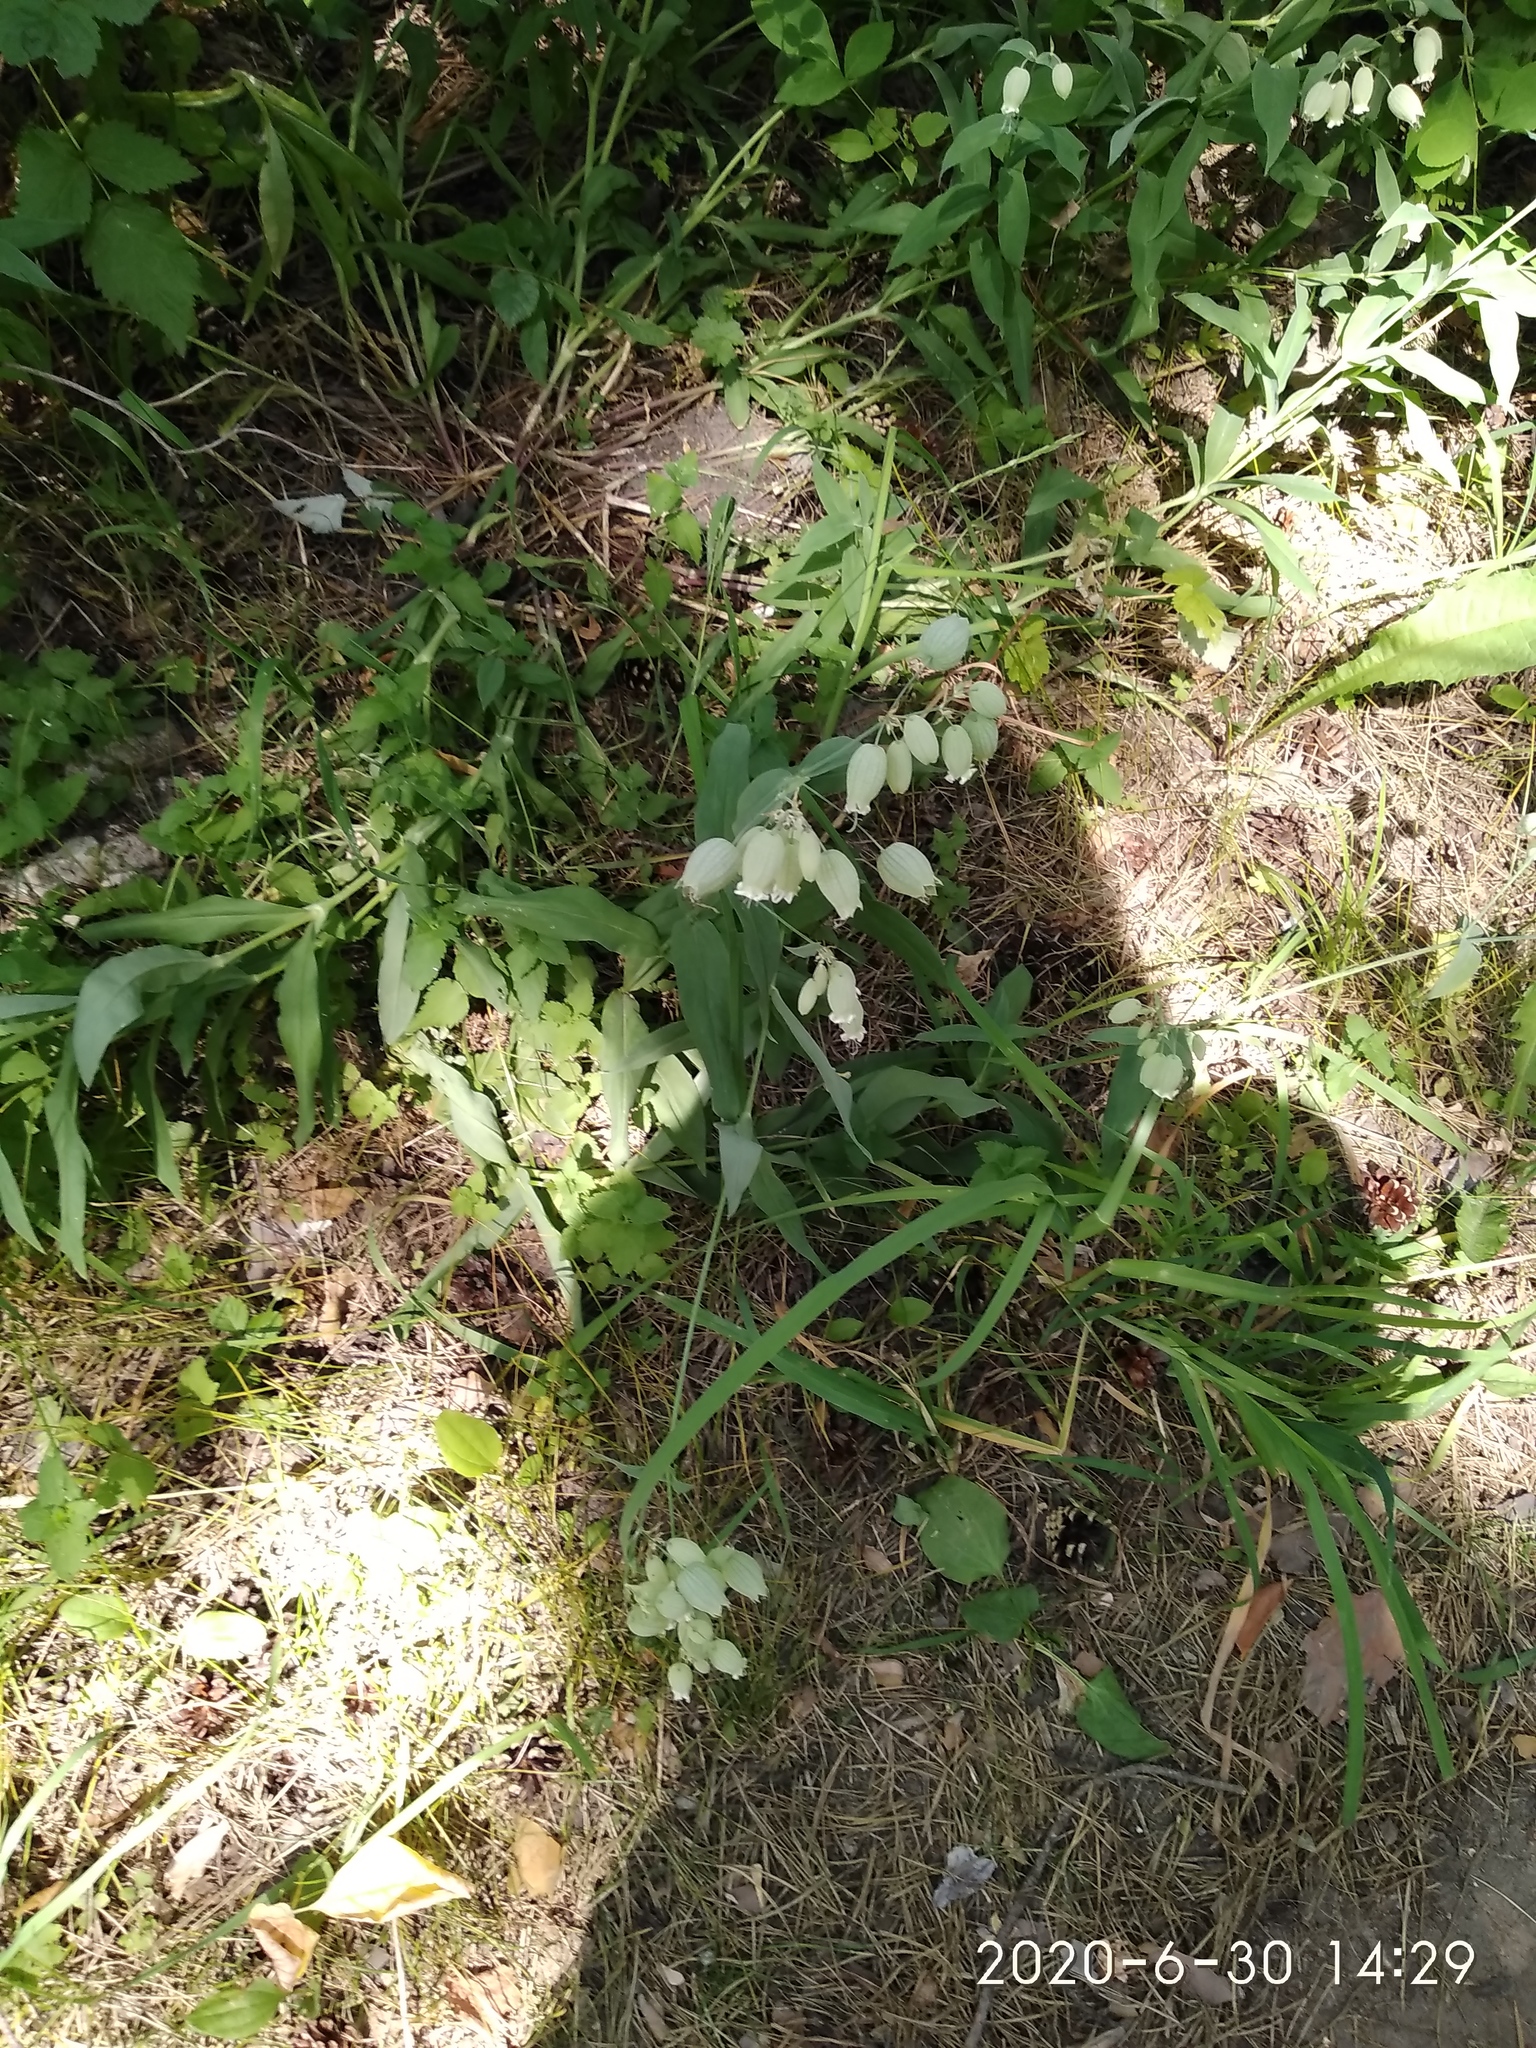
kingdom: Plantae
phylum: Tracheophyta
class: Magnoliopsida
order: Caryophyllales
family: Caryophyllaceae
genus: Silene
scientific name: Silene vulgaris
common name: Bladder campion
